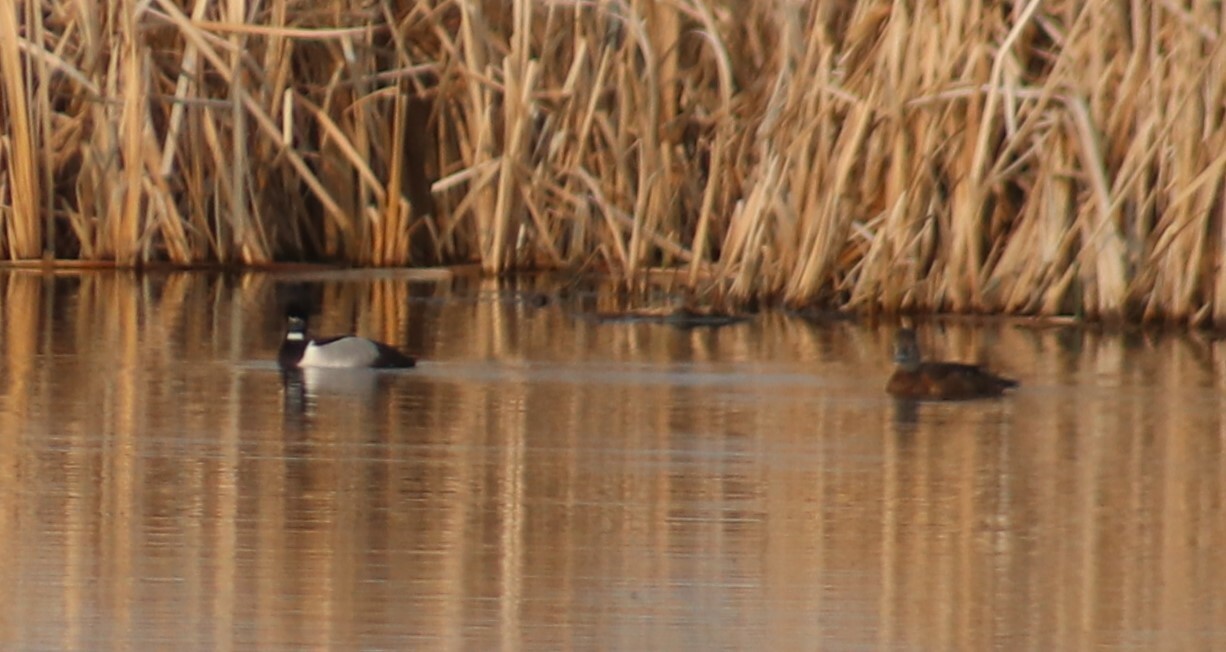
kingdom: Animalia
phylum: Chordata
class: Aves
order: Anseriformes
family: Anatidae
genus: Aythya
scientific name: Aythya collaris
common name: Ring-necked duck
